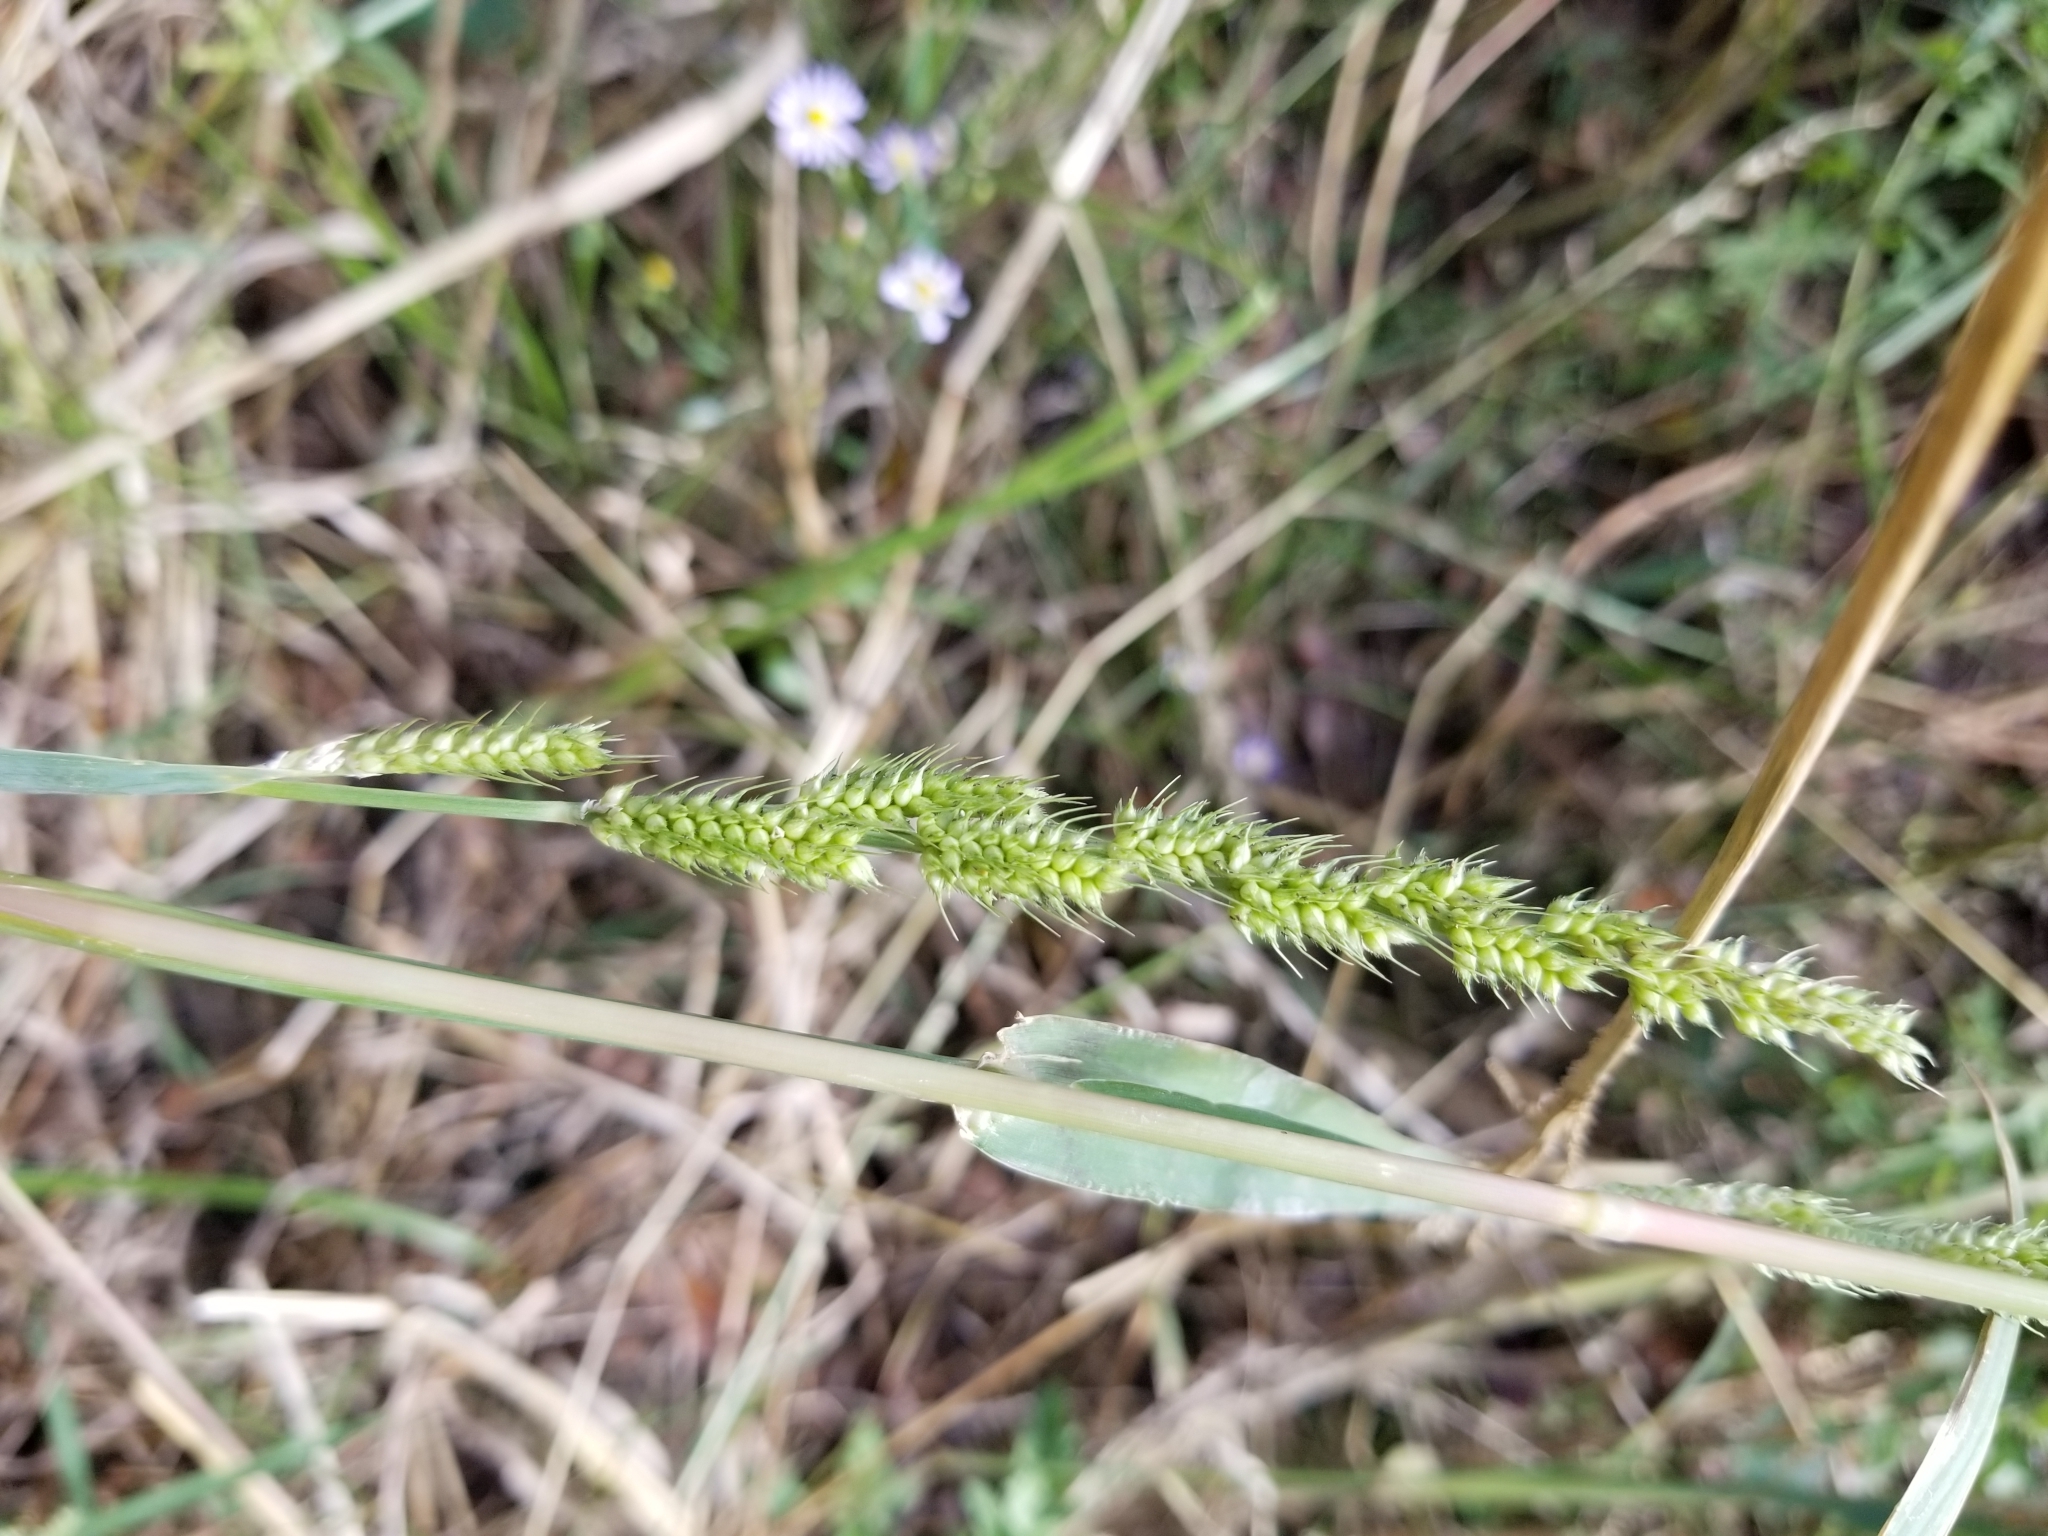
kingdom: Plantae
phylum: Tracheophyta
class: Liliopsida
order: Poales
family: Poaceae
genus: Echinochloa
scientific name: Echinochloa crus-galli
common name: Cockspur
